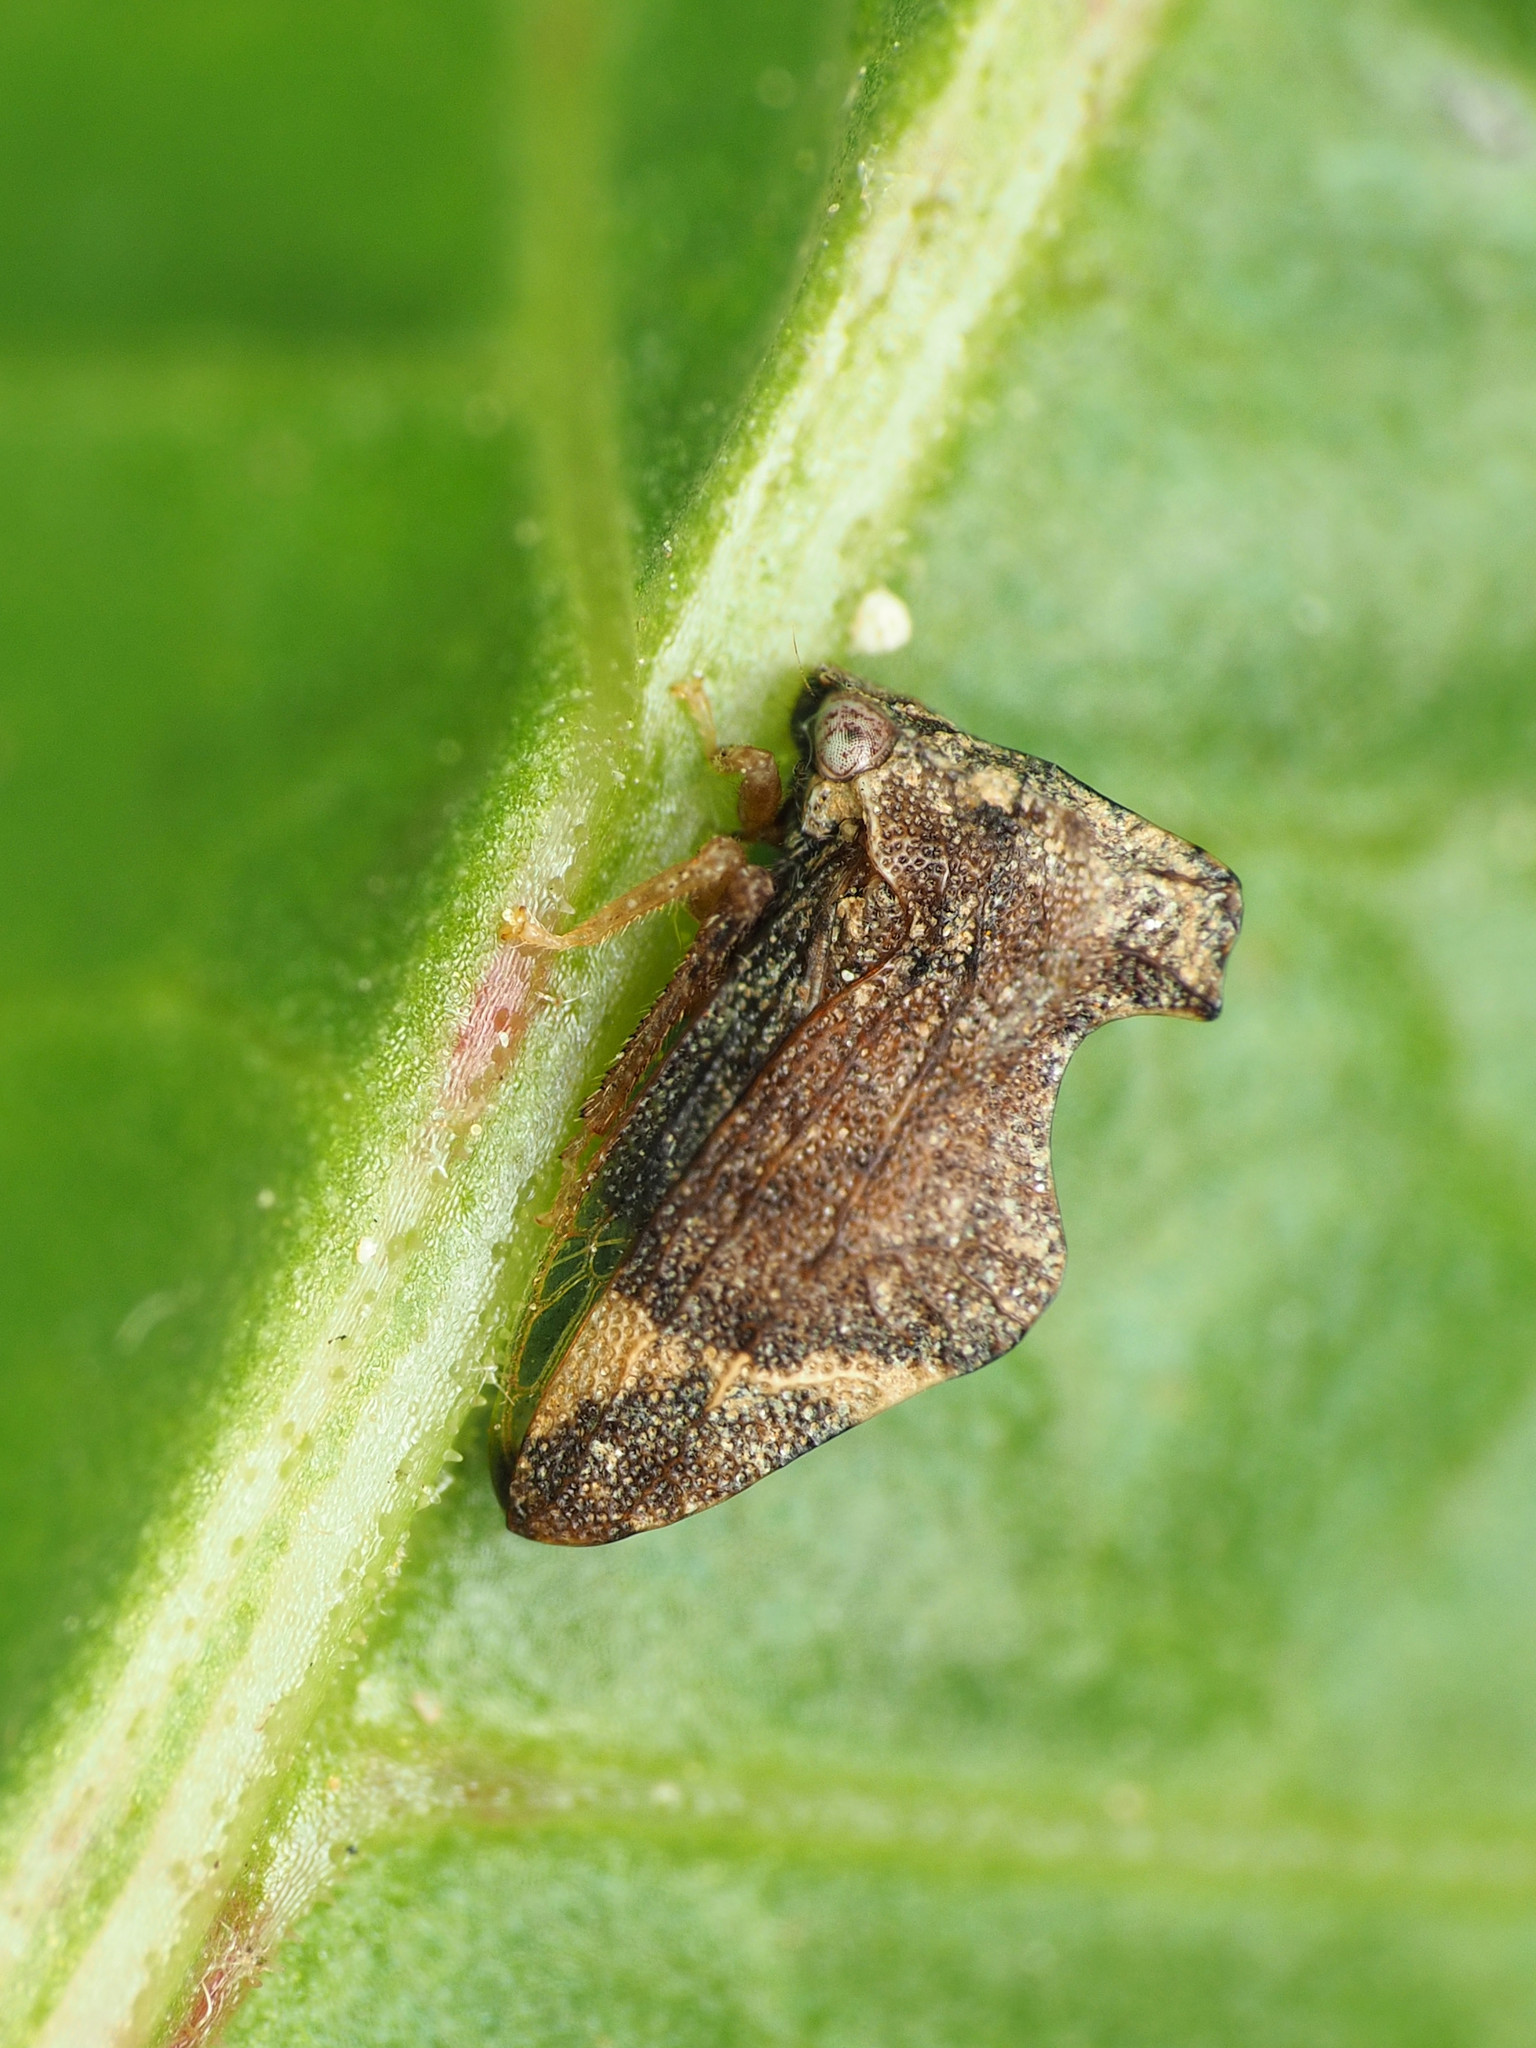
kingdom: Animalia
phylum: Arthropoda
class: Insecta
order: Hemiptera
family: Membracidae
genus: Entylia
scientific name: Entylia carinata
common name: Keeled treehopper
